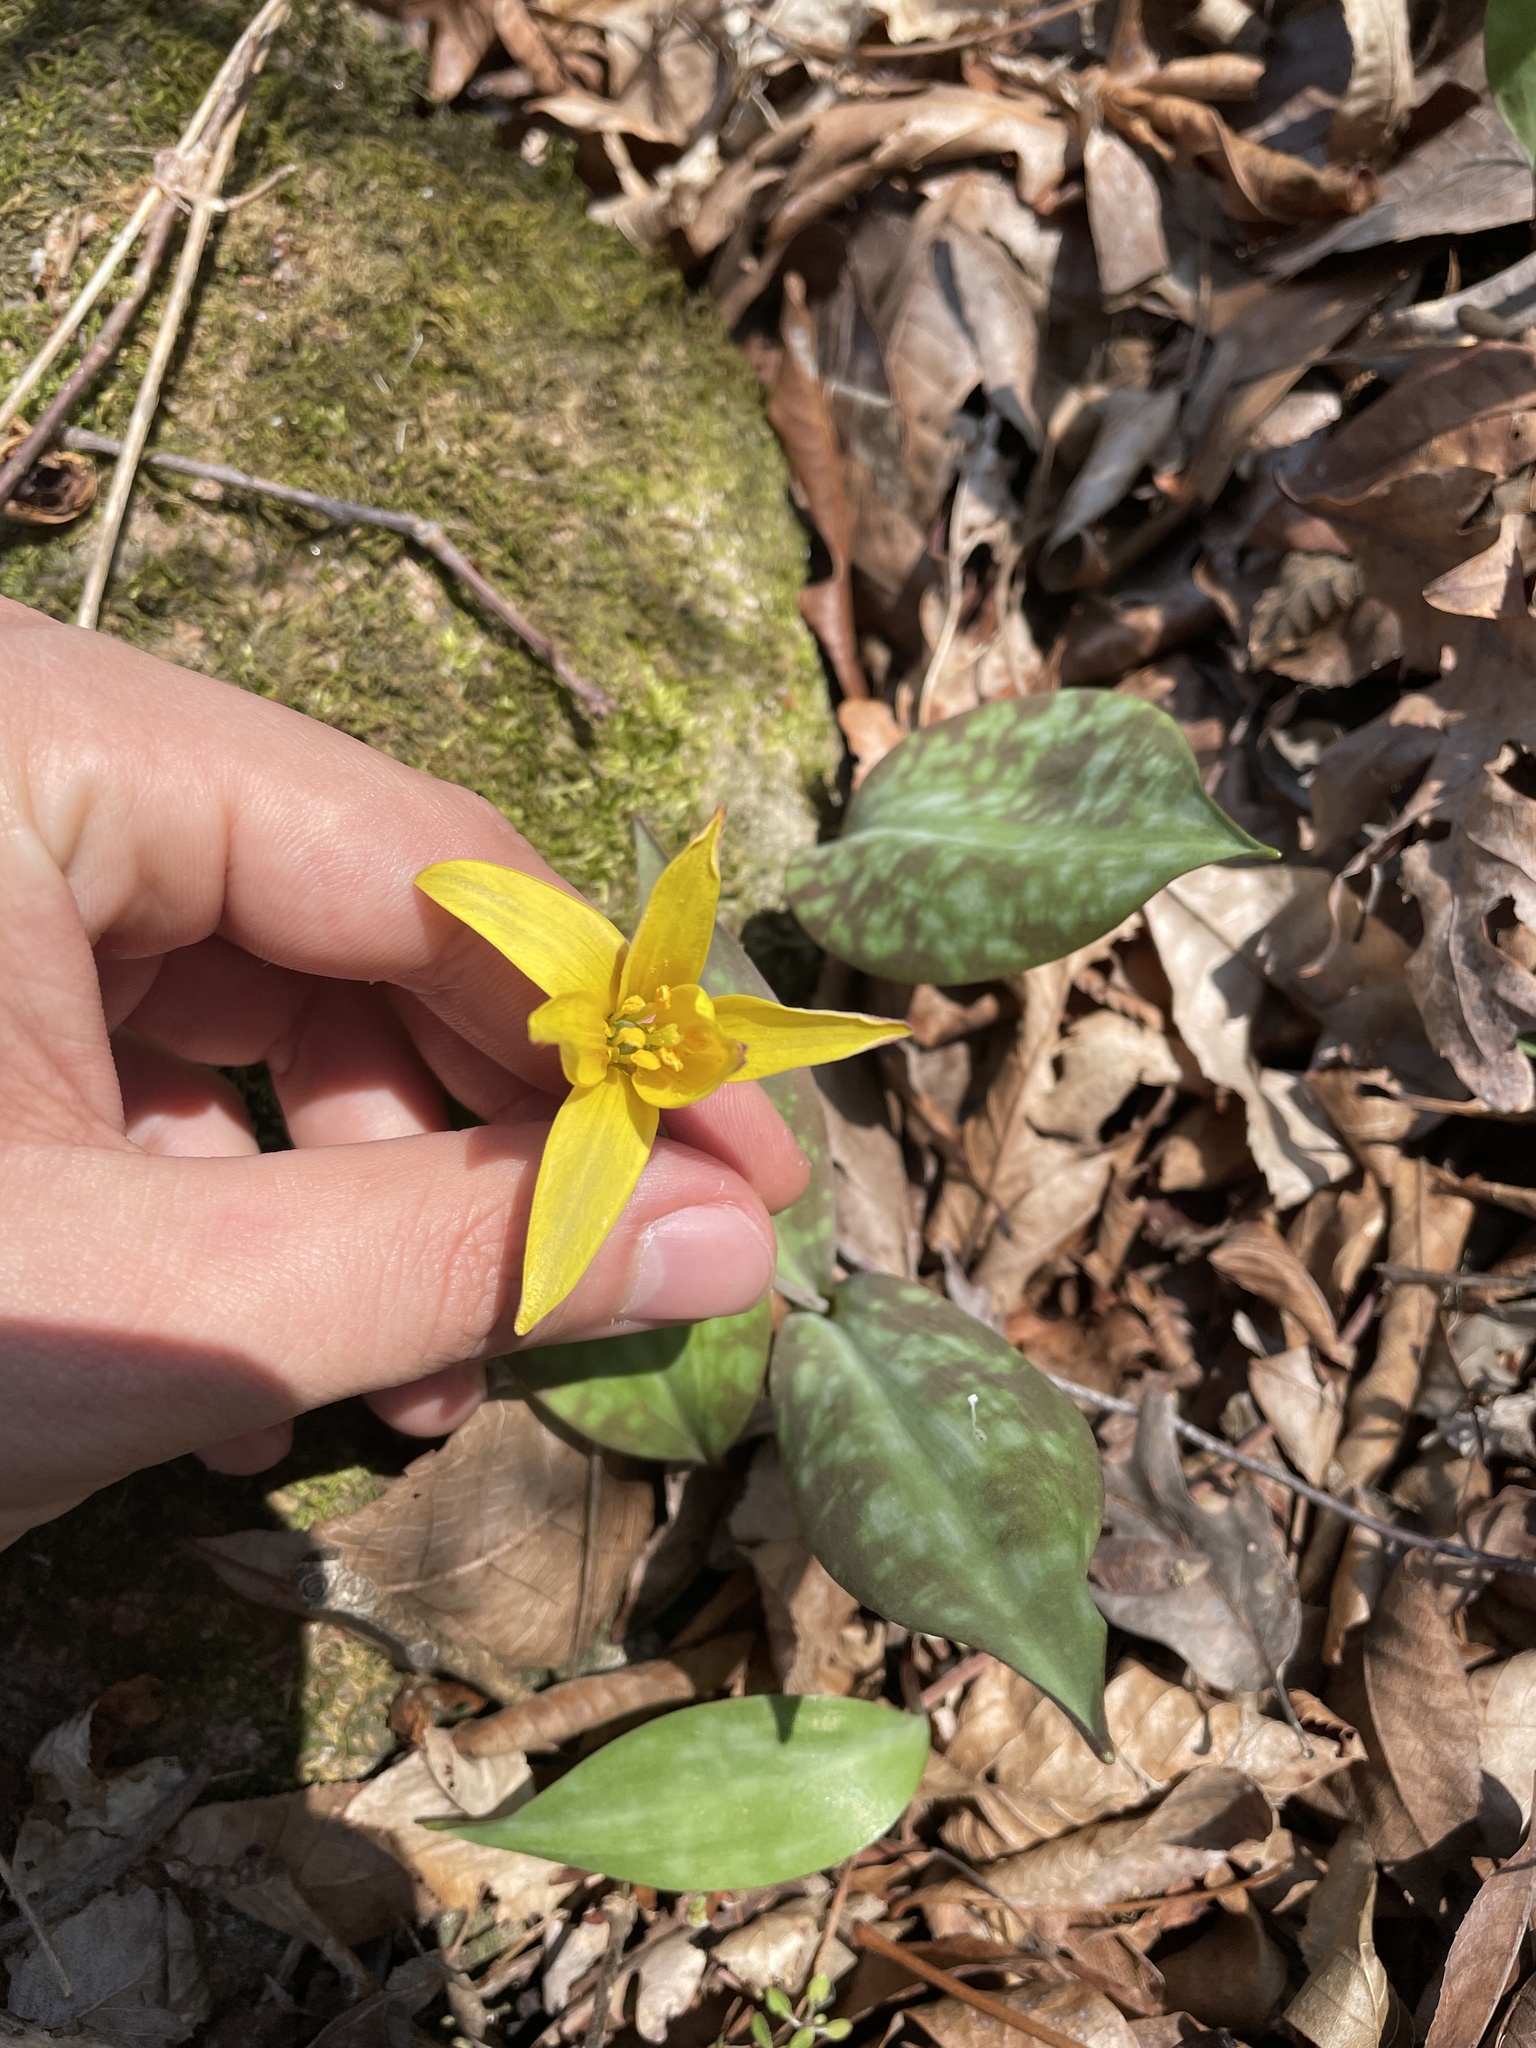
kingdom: Plantae
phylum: Tracheophyta
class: Liliopsida
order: Liliales
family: Liliaceae
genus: Erythronium
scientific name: Erythronium rostratum
